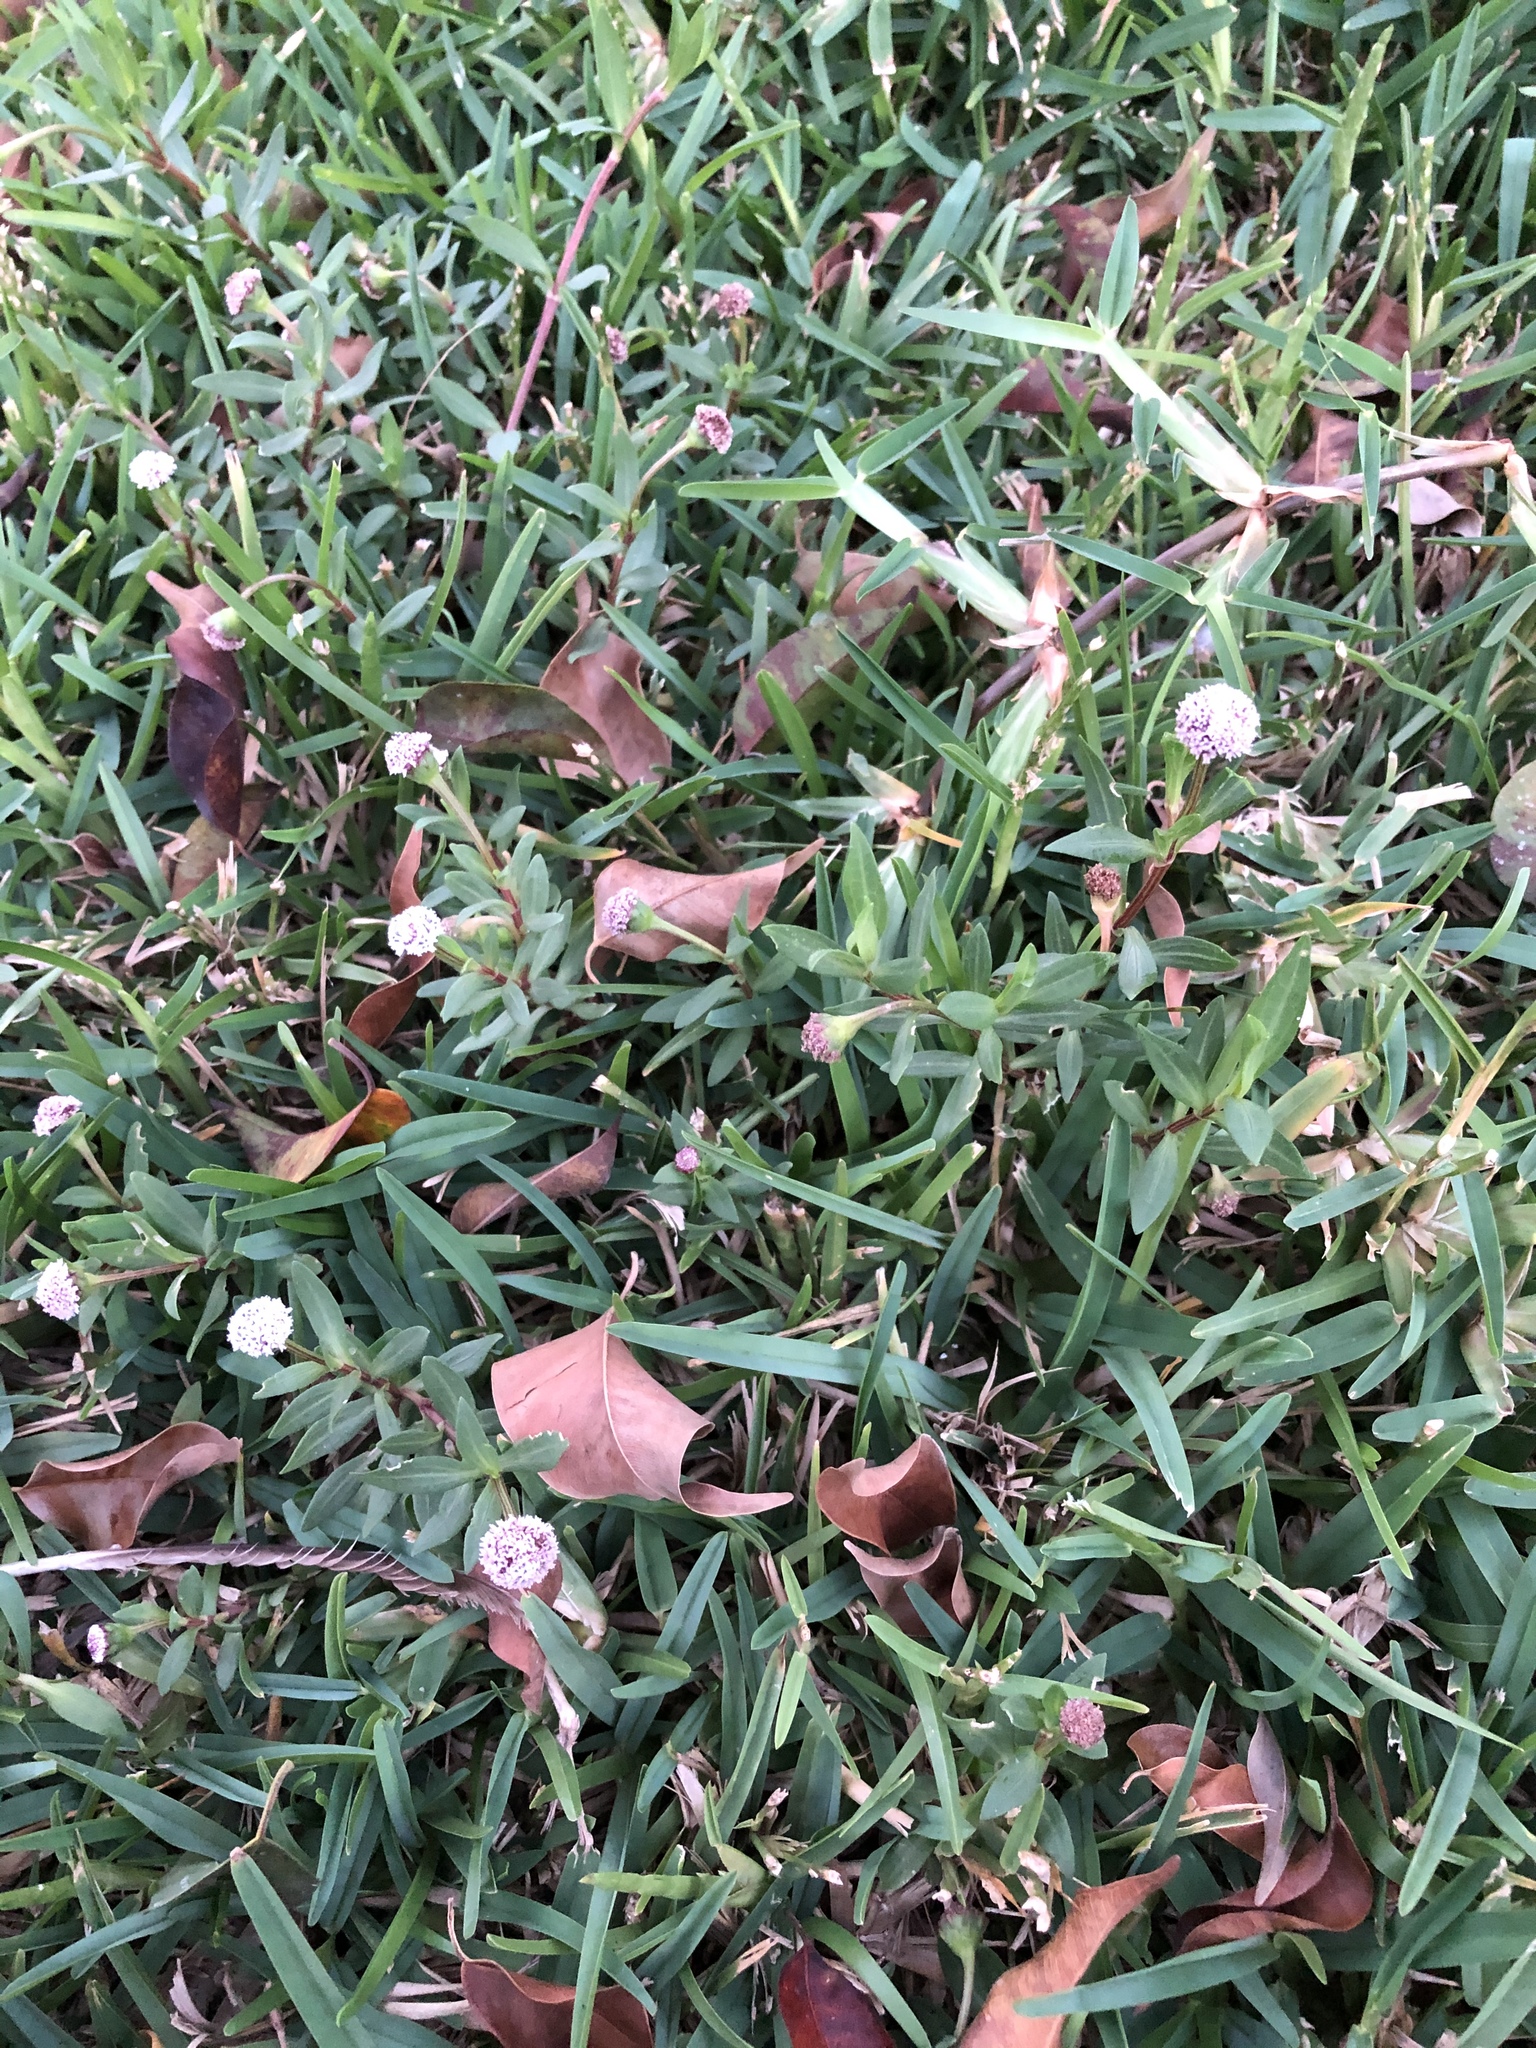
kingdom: Plantae
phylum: Tracheophyta
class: Magnoliopsida
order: Asterales
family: Asteraceae
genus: Spilanthes
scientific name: Spilanthes leiocarpa
